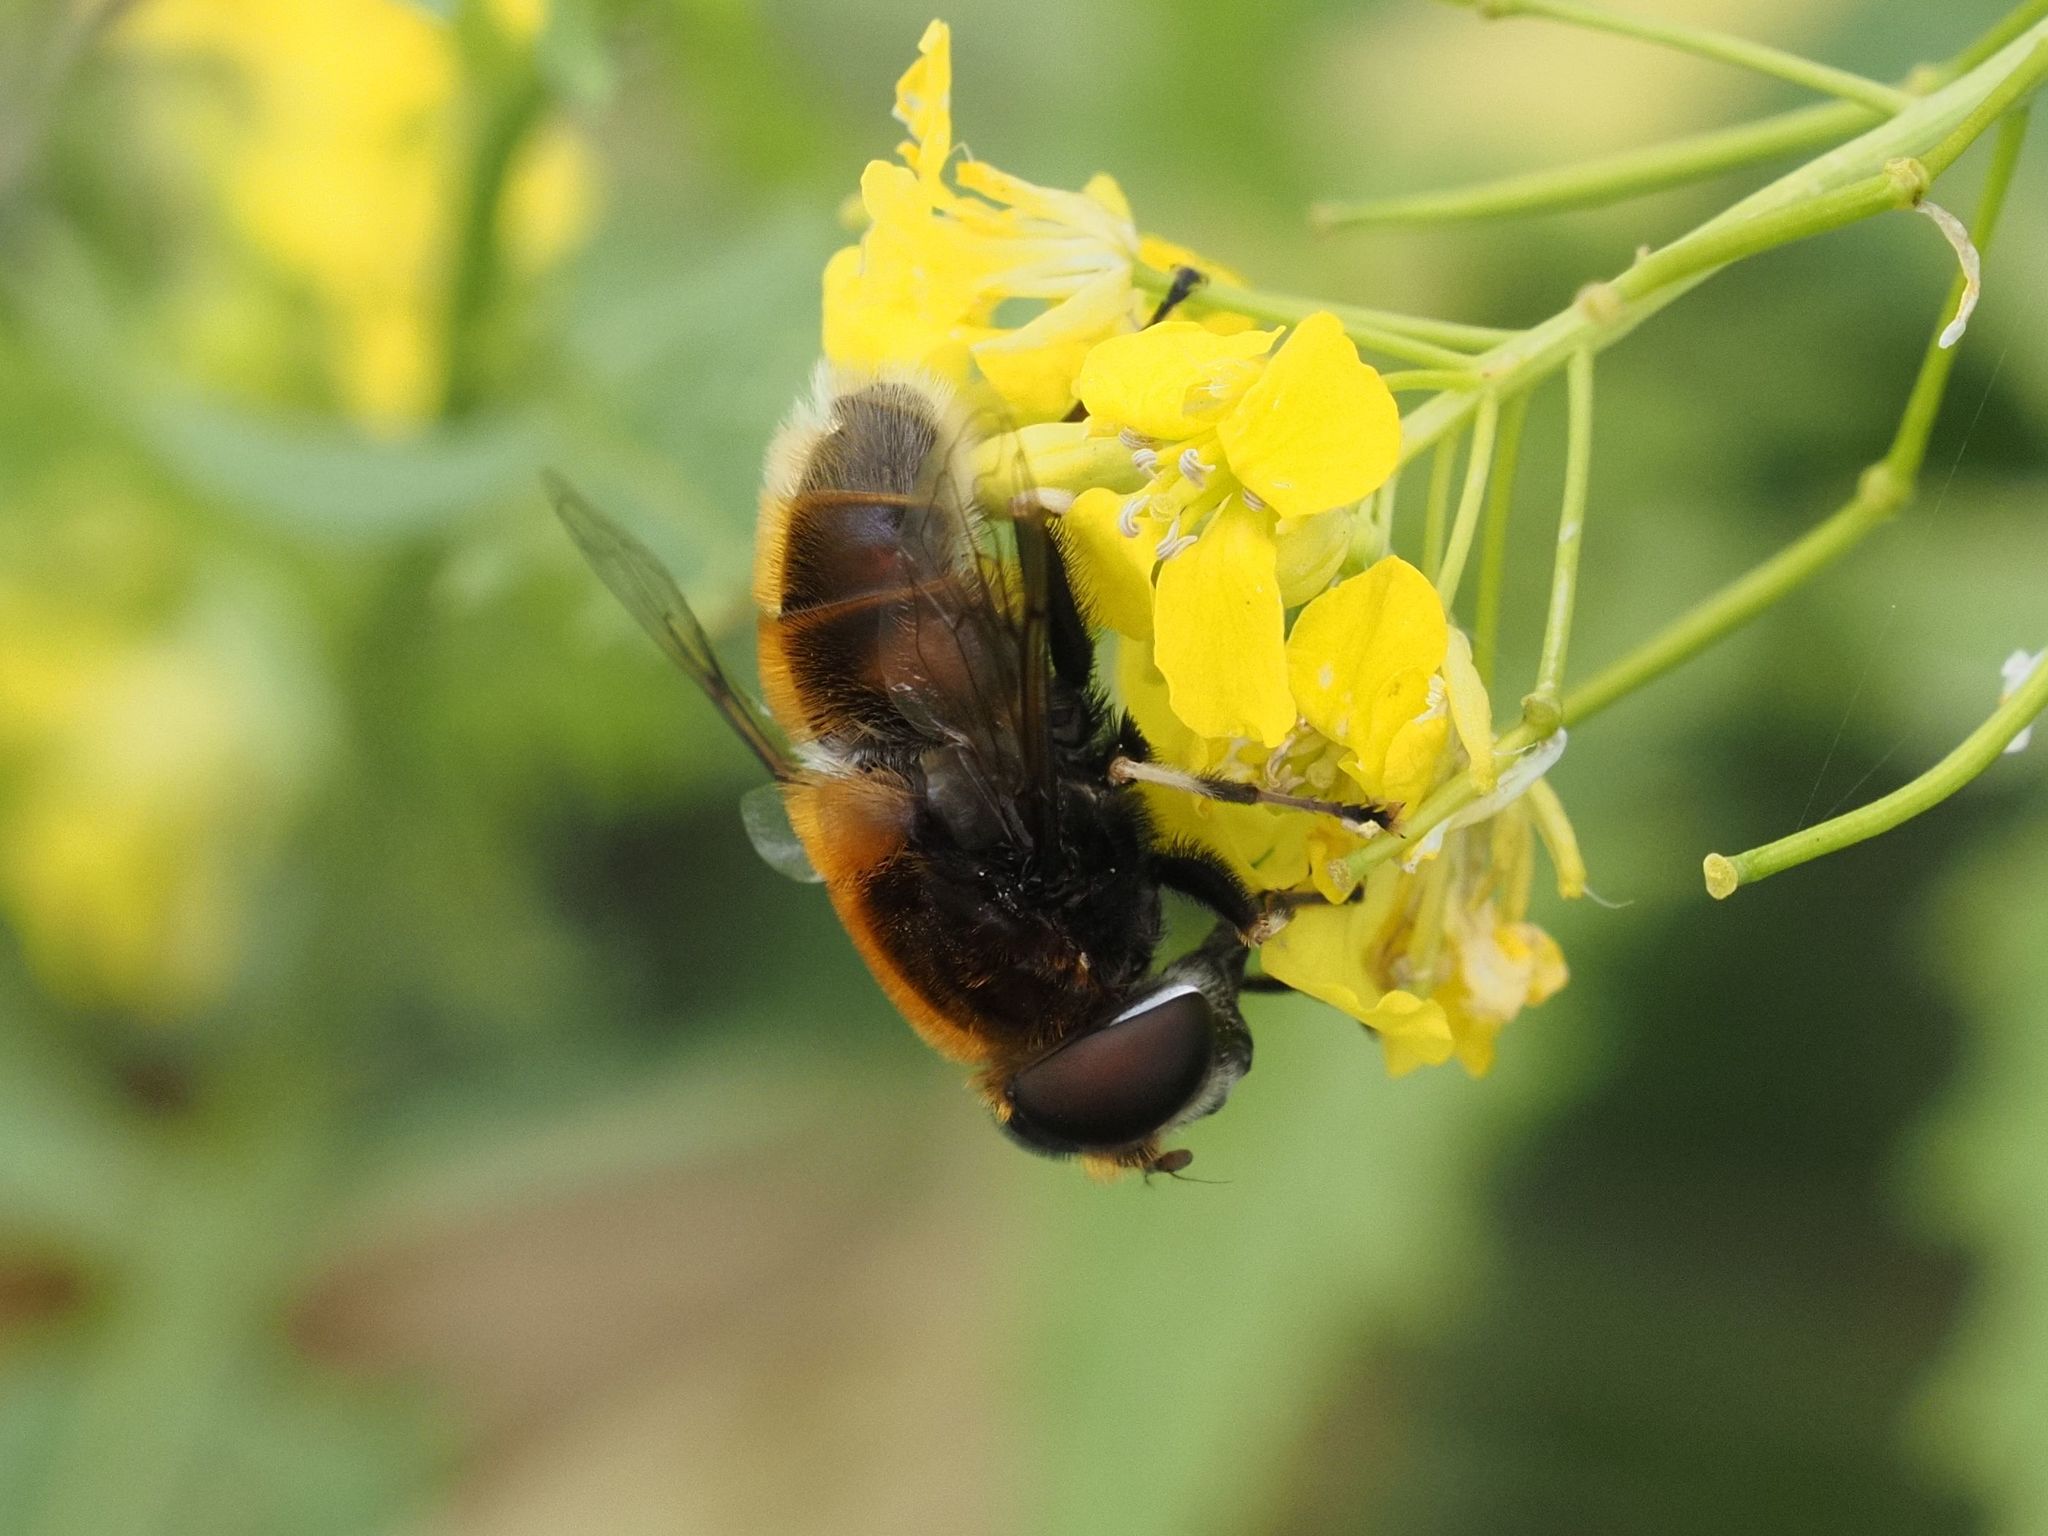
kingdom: Animalia
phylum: Arthropoda
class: Insecta
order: Diptera
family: Syrphidae
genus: Eristalis
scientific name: Eristalis intricaria
